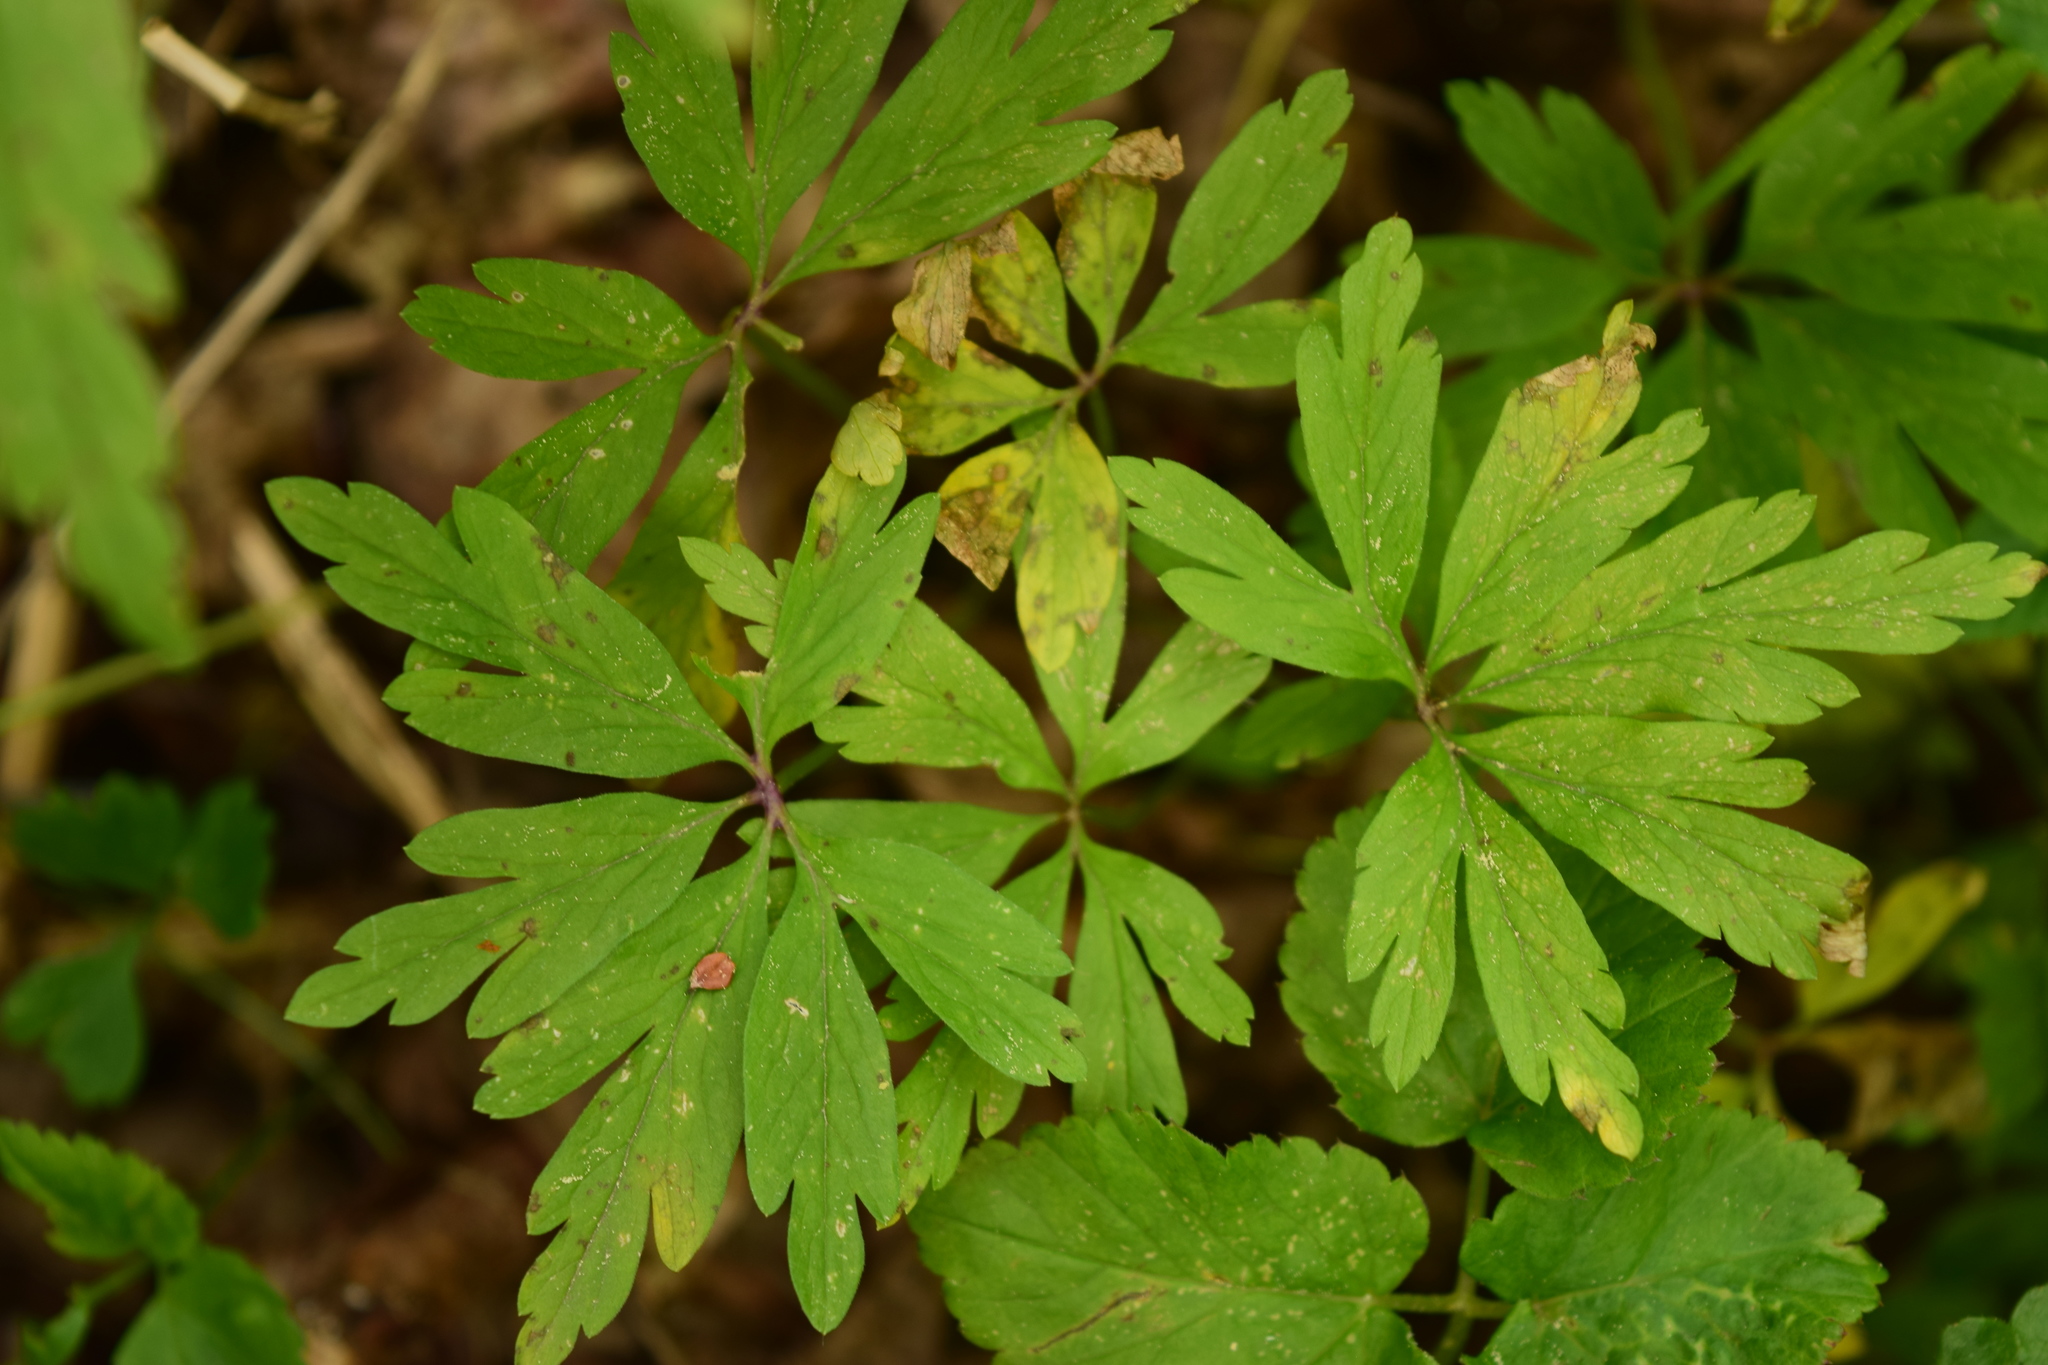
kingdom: Plantae
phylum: Tracheophyta
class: Magnoliopsida
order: Ranunculales
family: Ranunculaceae
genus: Anemone
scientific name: Anemone ranunculoides
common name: Yellow anemone
